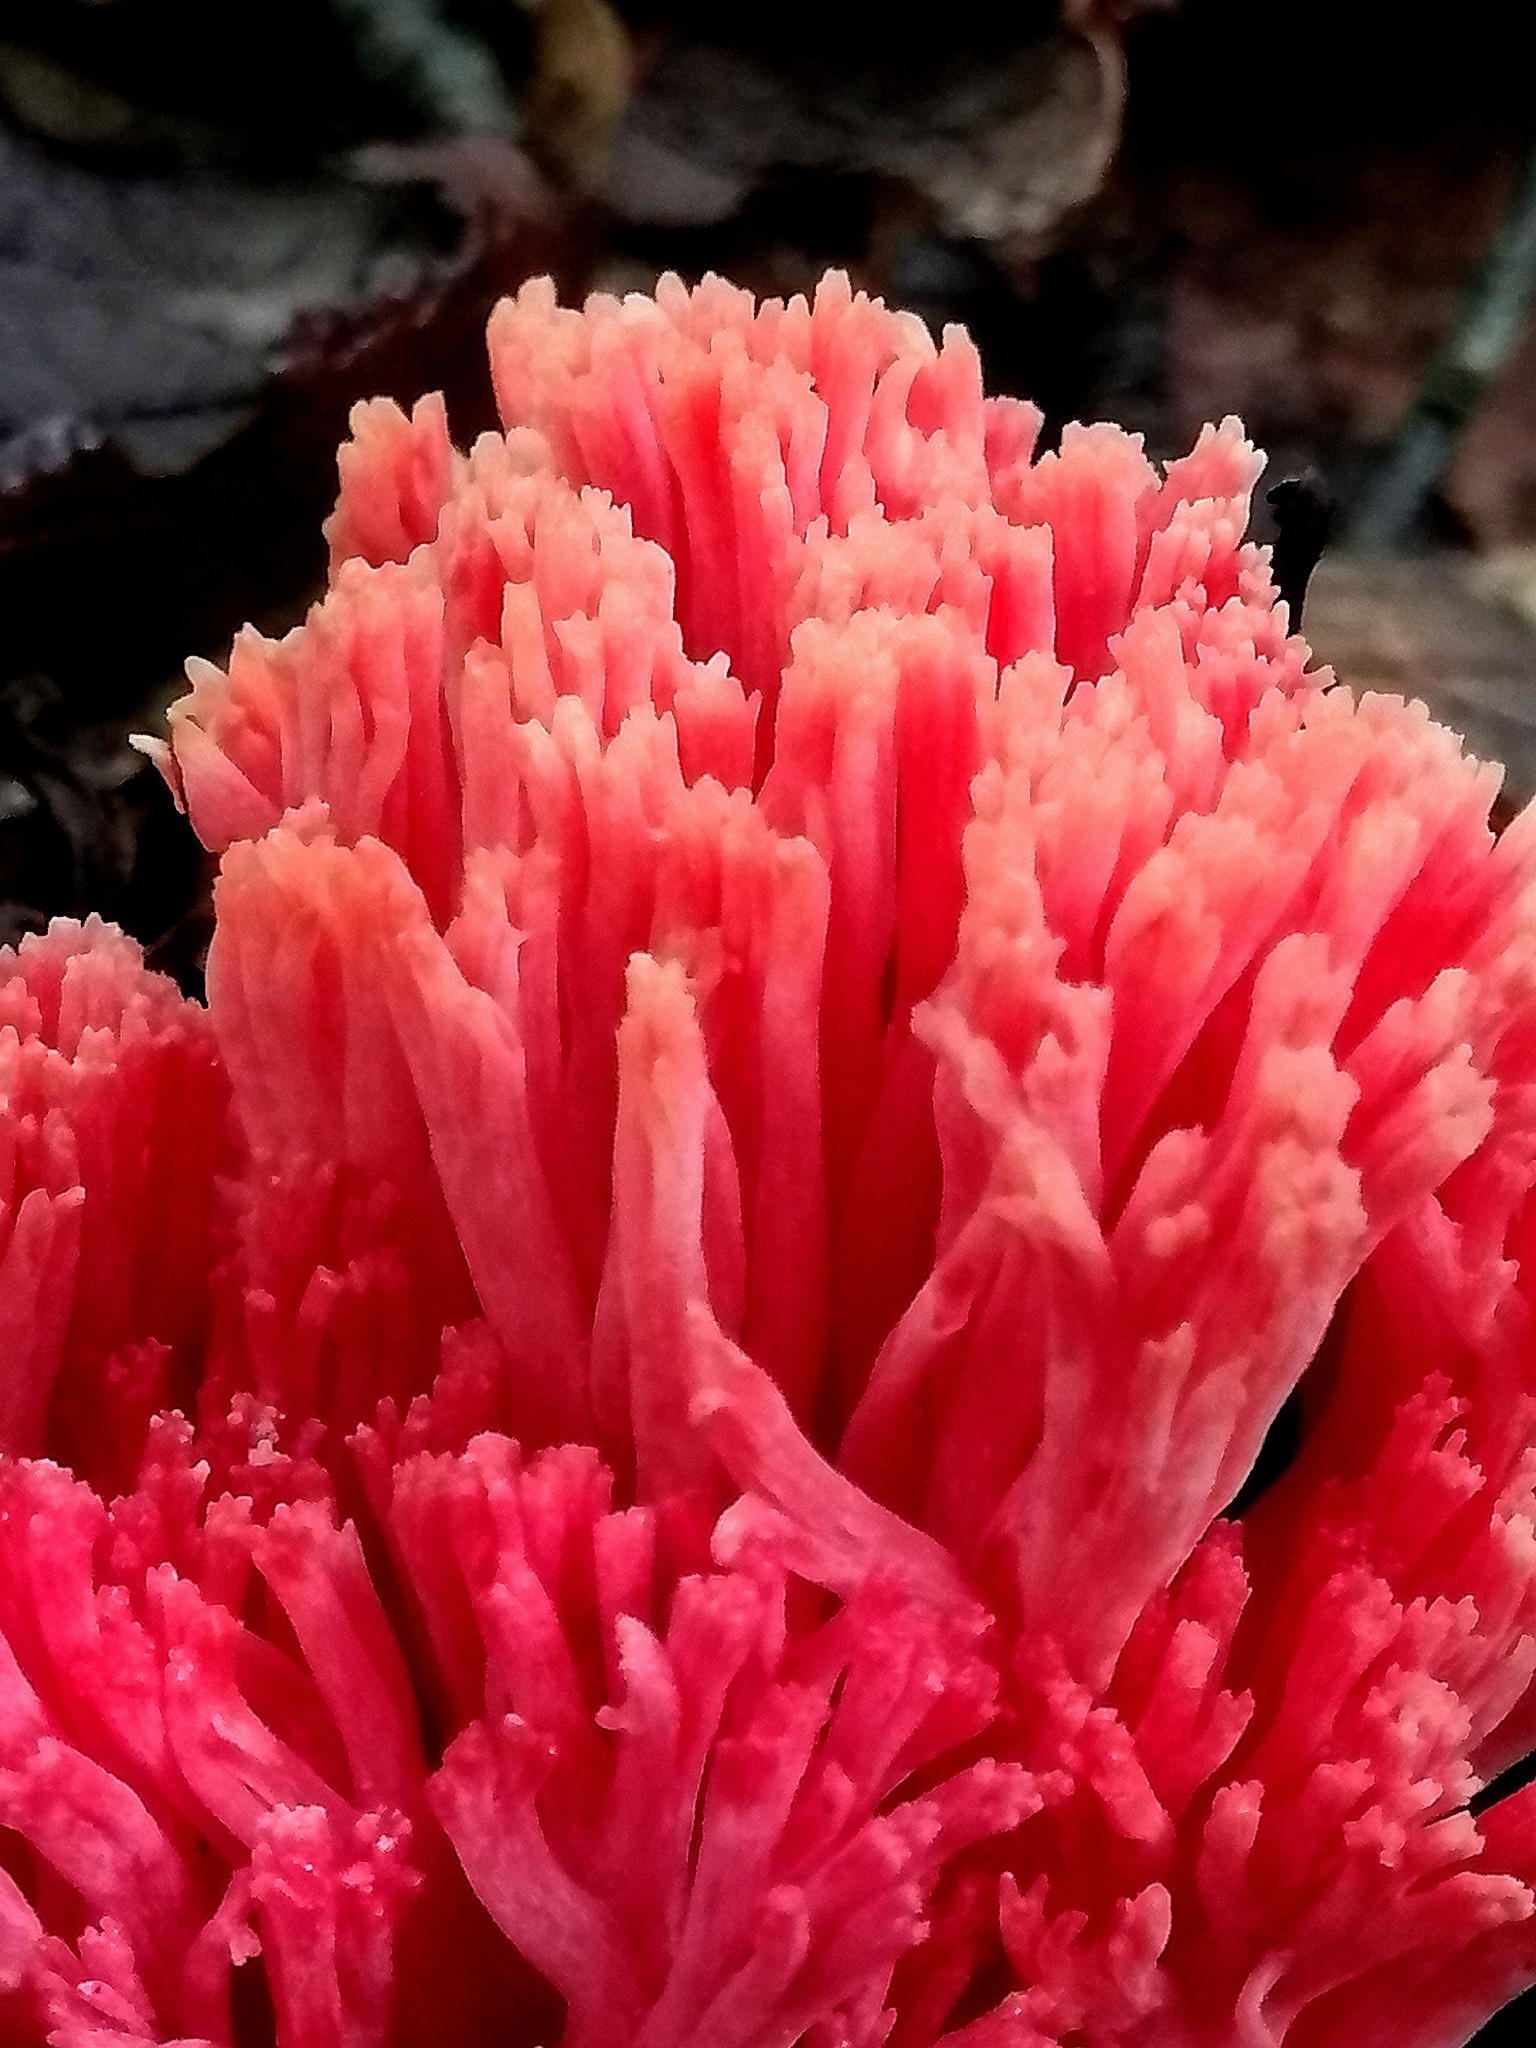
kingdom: Fungi
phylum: Basidiomycota
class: Agaricomycetes
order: Gomphales
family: Gomphaceae
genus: Ramaria
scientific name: Ramaria araiospora
